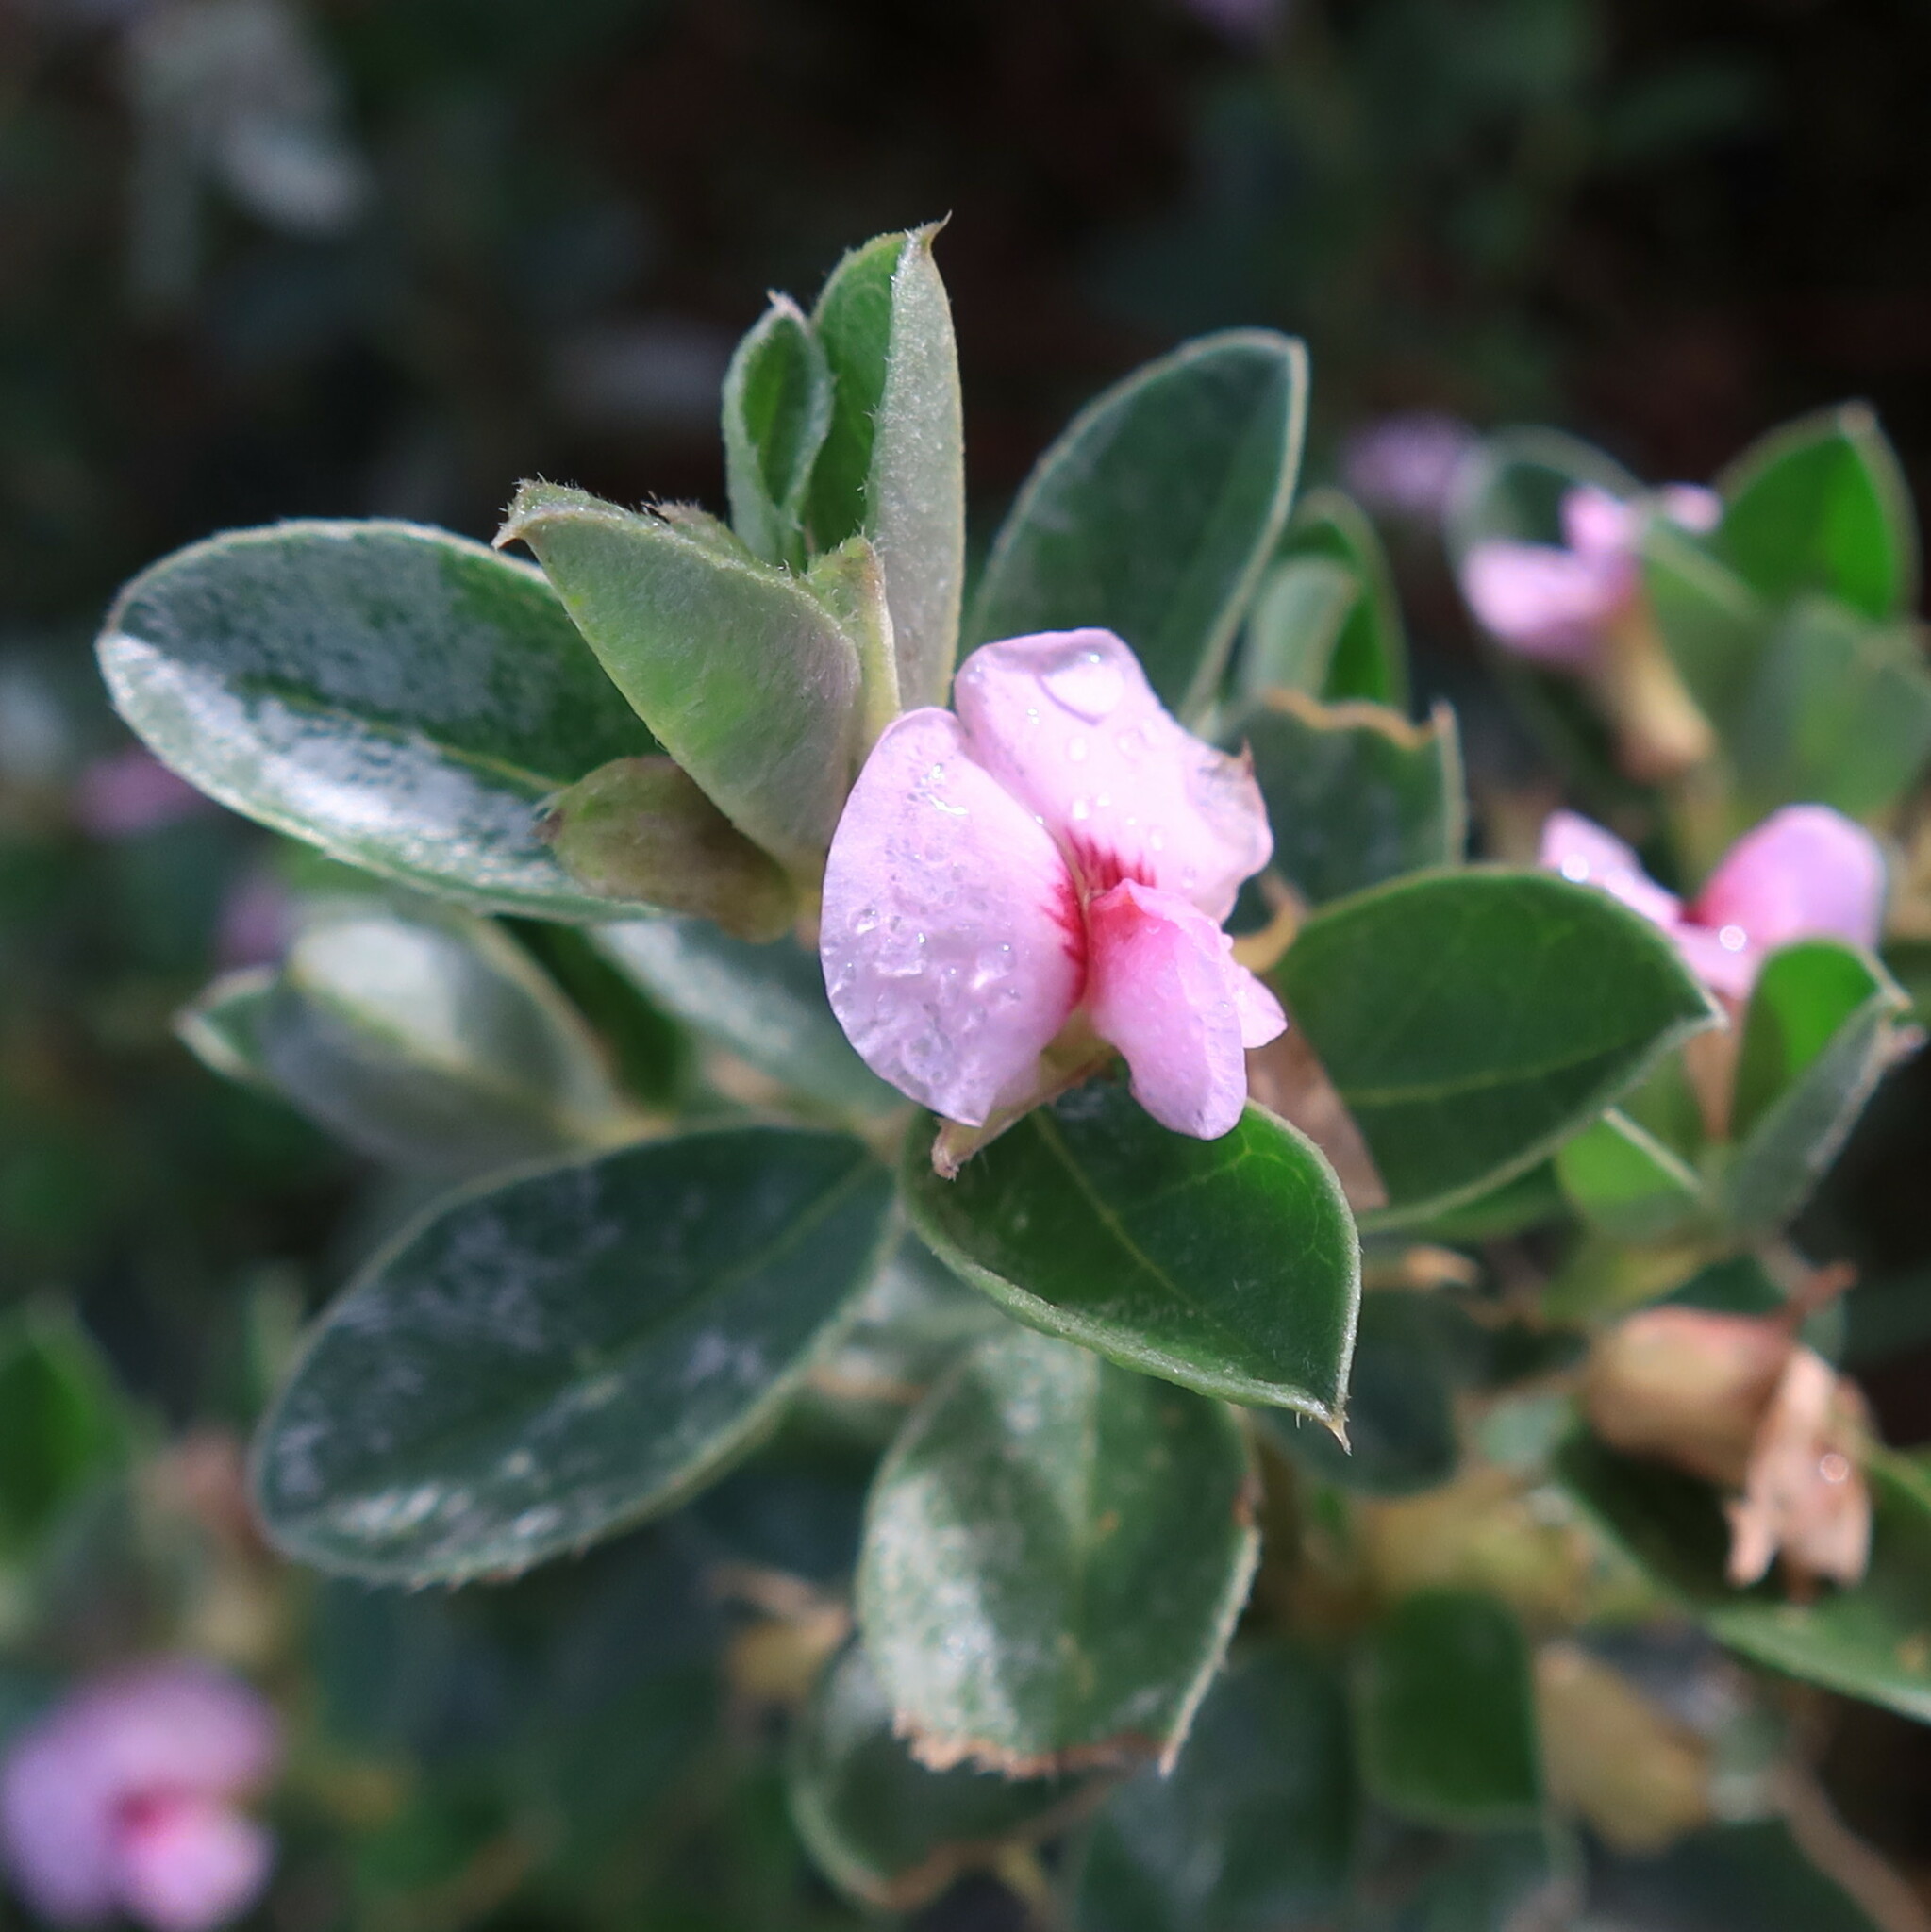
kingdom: Plantae
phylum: Tracheophyta
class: Magnoliopsida
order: Fabales
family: Fabaceae
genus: Podalyria
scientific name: Podalyria sericea
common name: Silver podalyria
